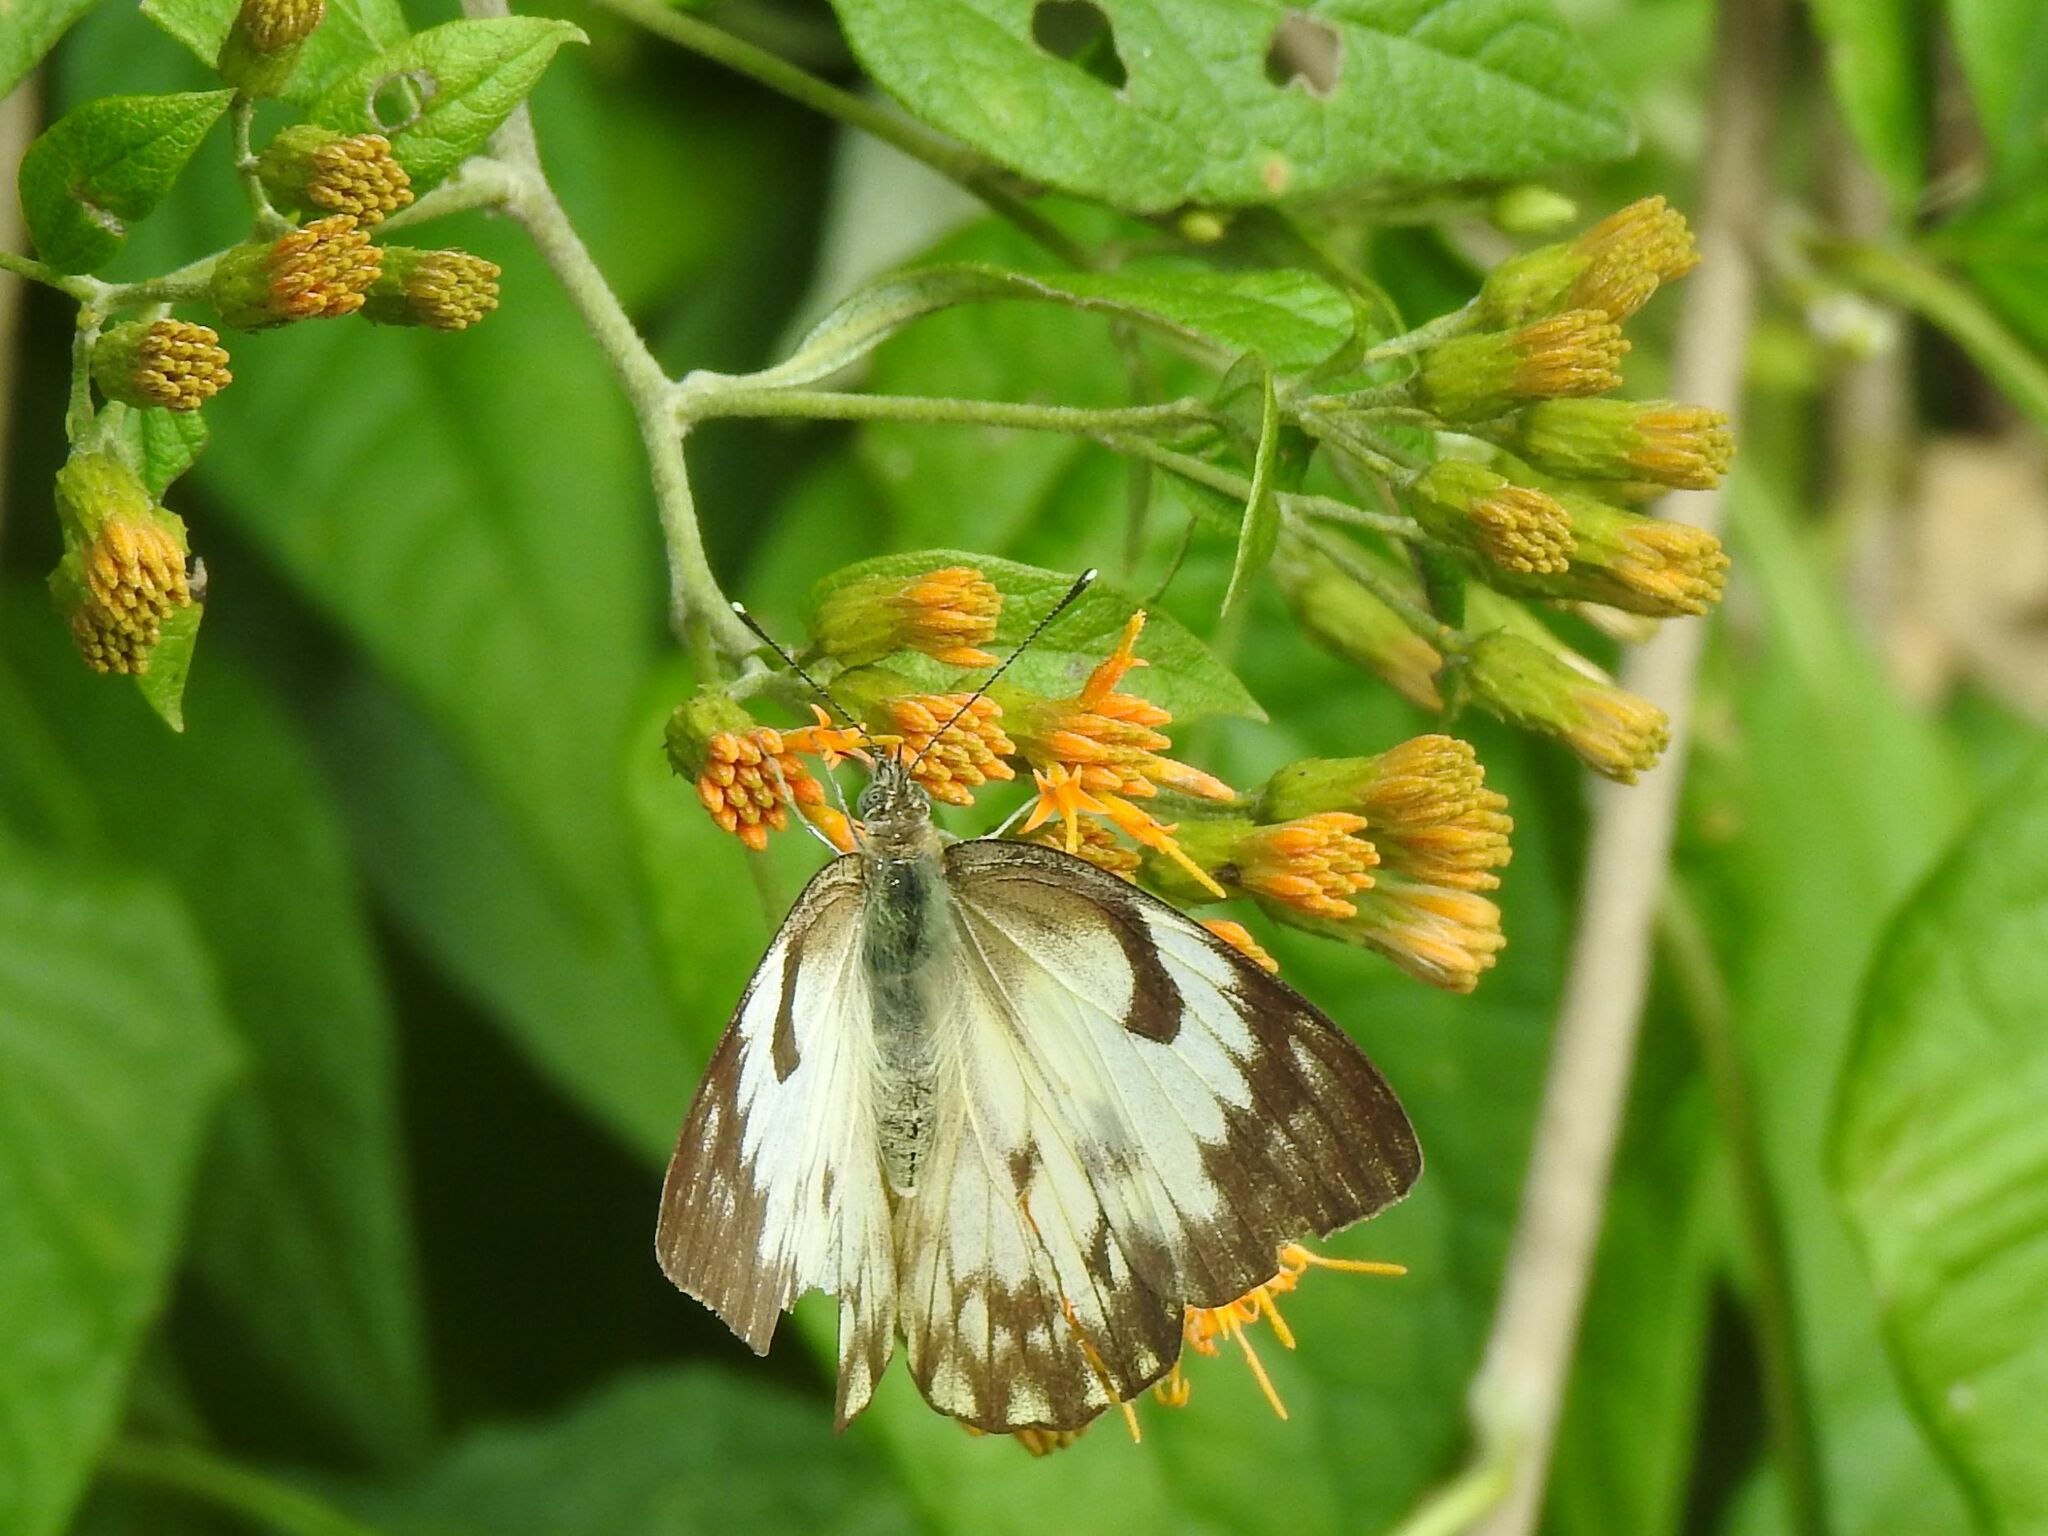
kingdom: Animalia
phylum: Arthropoda
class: Insecta
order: Lepidoptera
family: Pieridae
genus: Belenois
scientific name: Belenois gidica
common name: Pointed caper white
